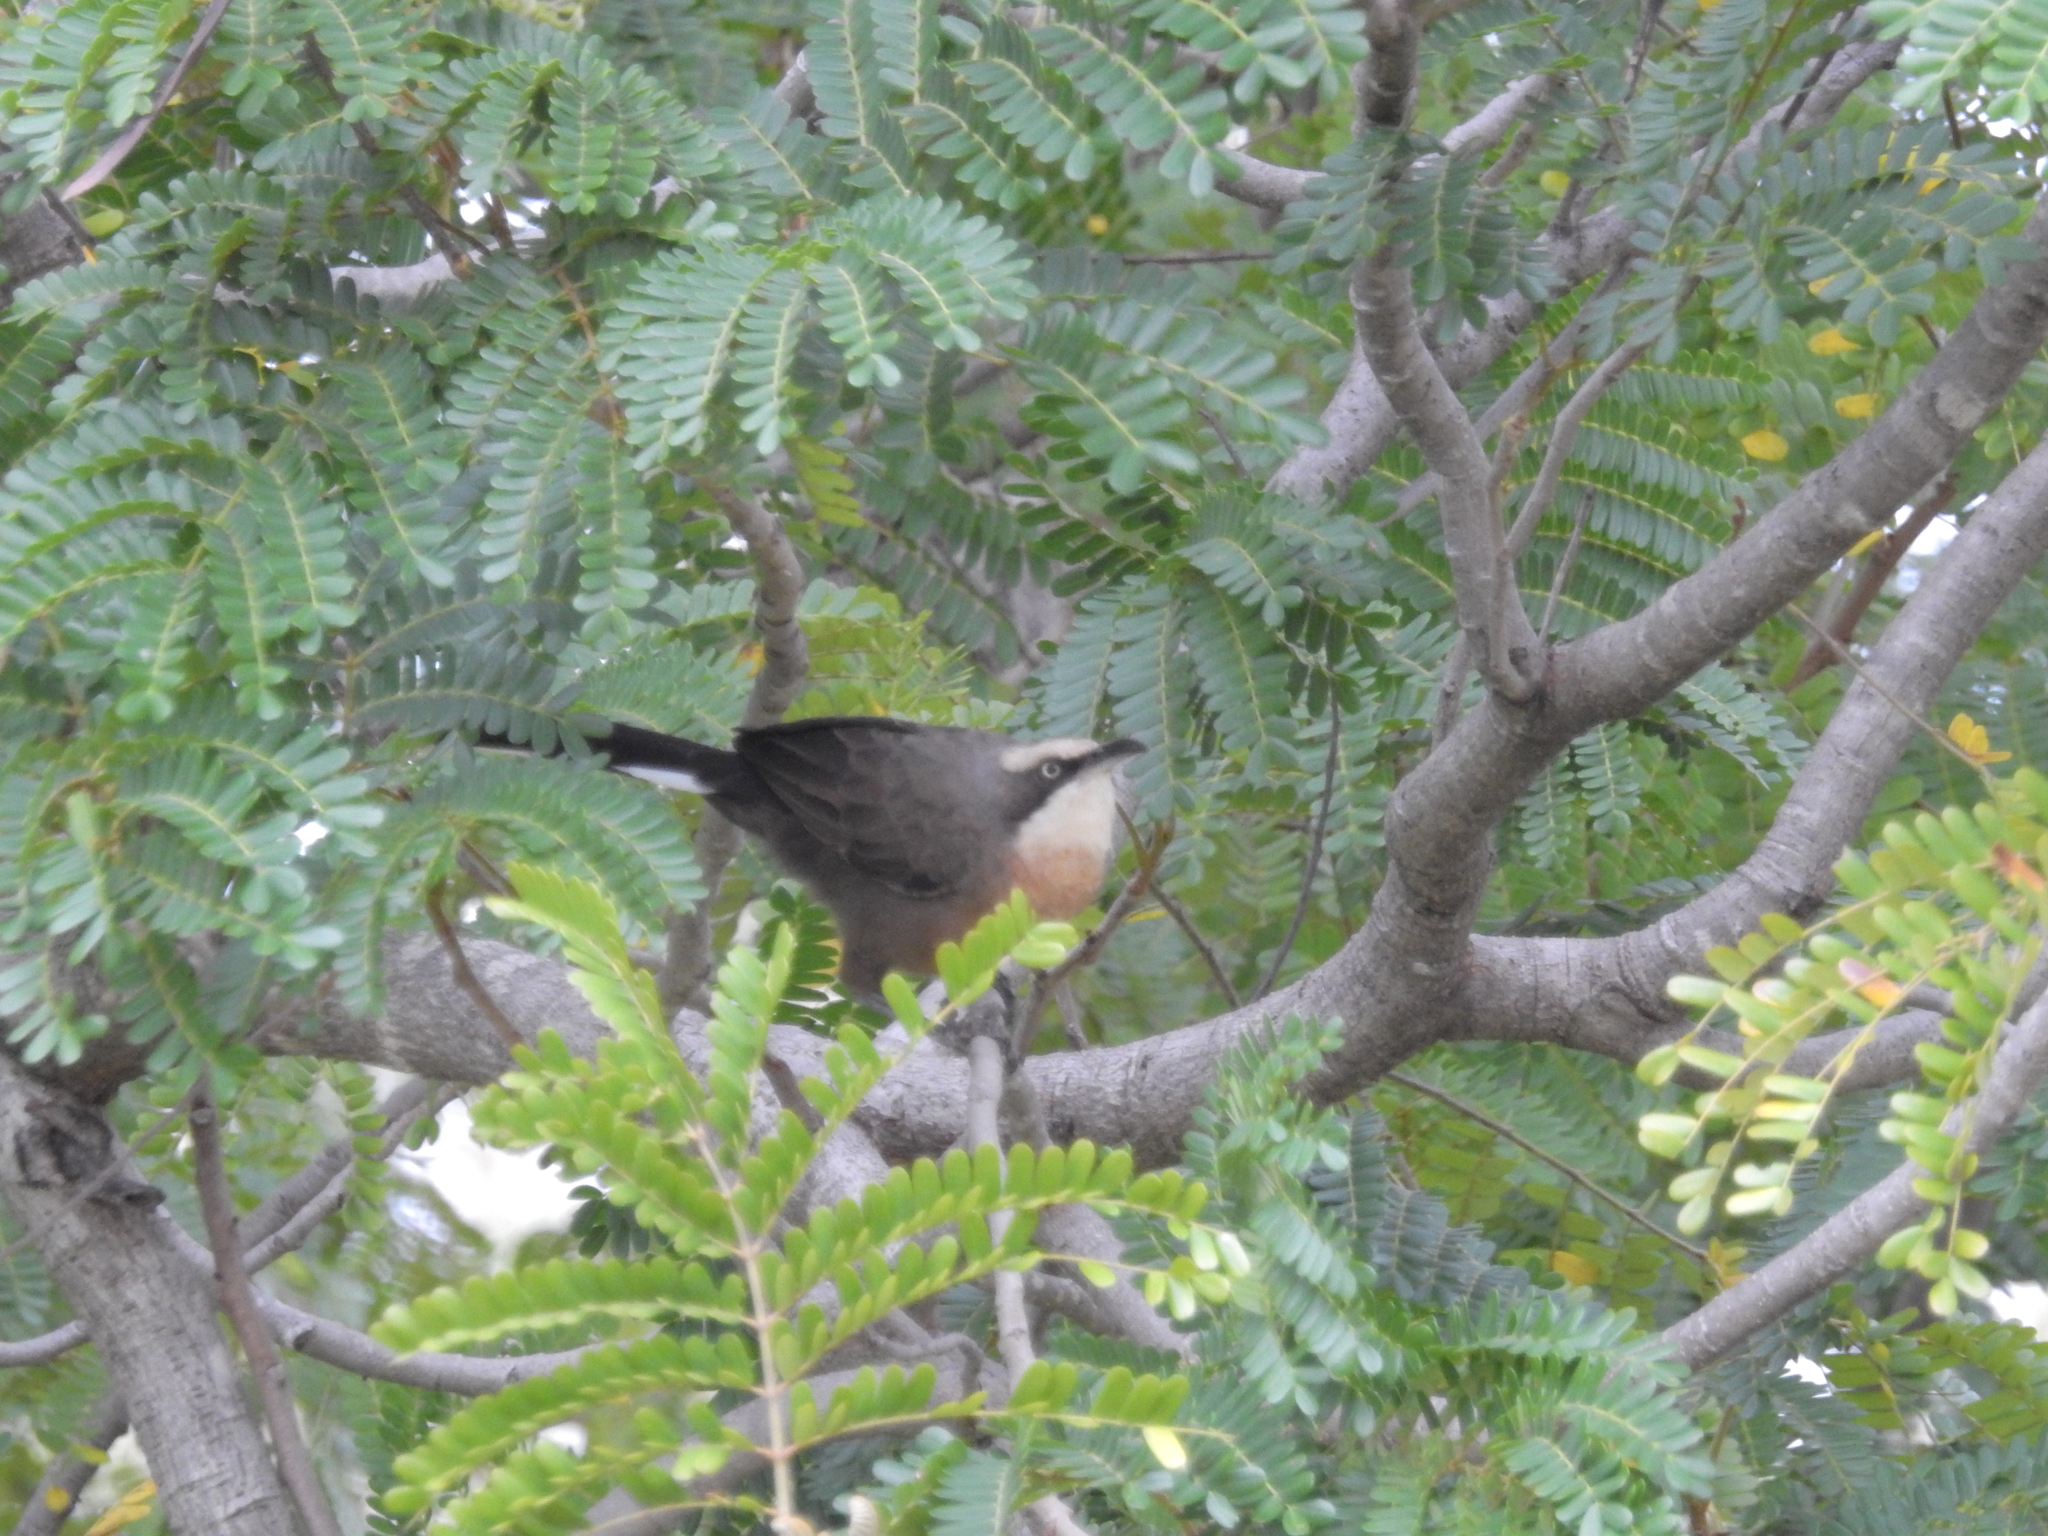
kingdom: Animalia
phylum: Chordata
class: Aves
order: Passeriformes
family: Pomatostomidae
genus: Pomatostomus
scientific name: Pomatostomus temporalis
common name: Grey-crowned babbler
